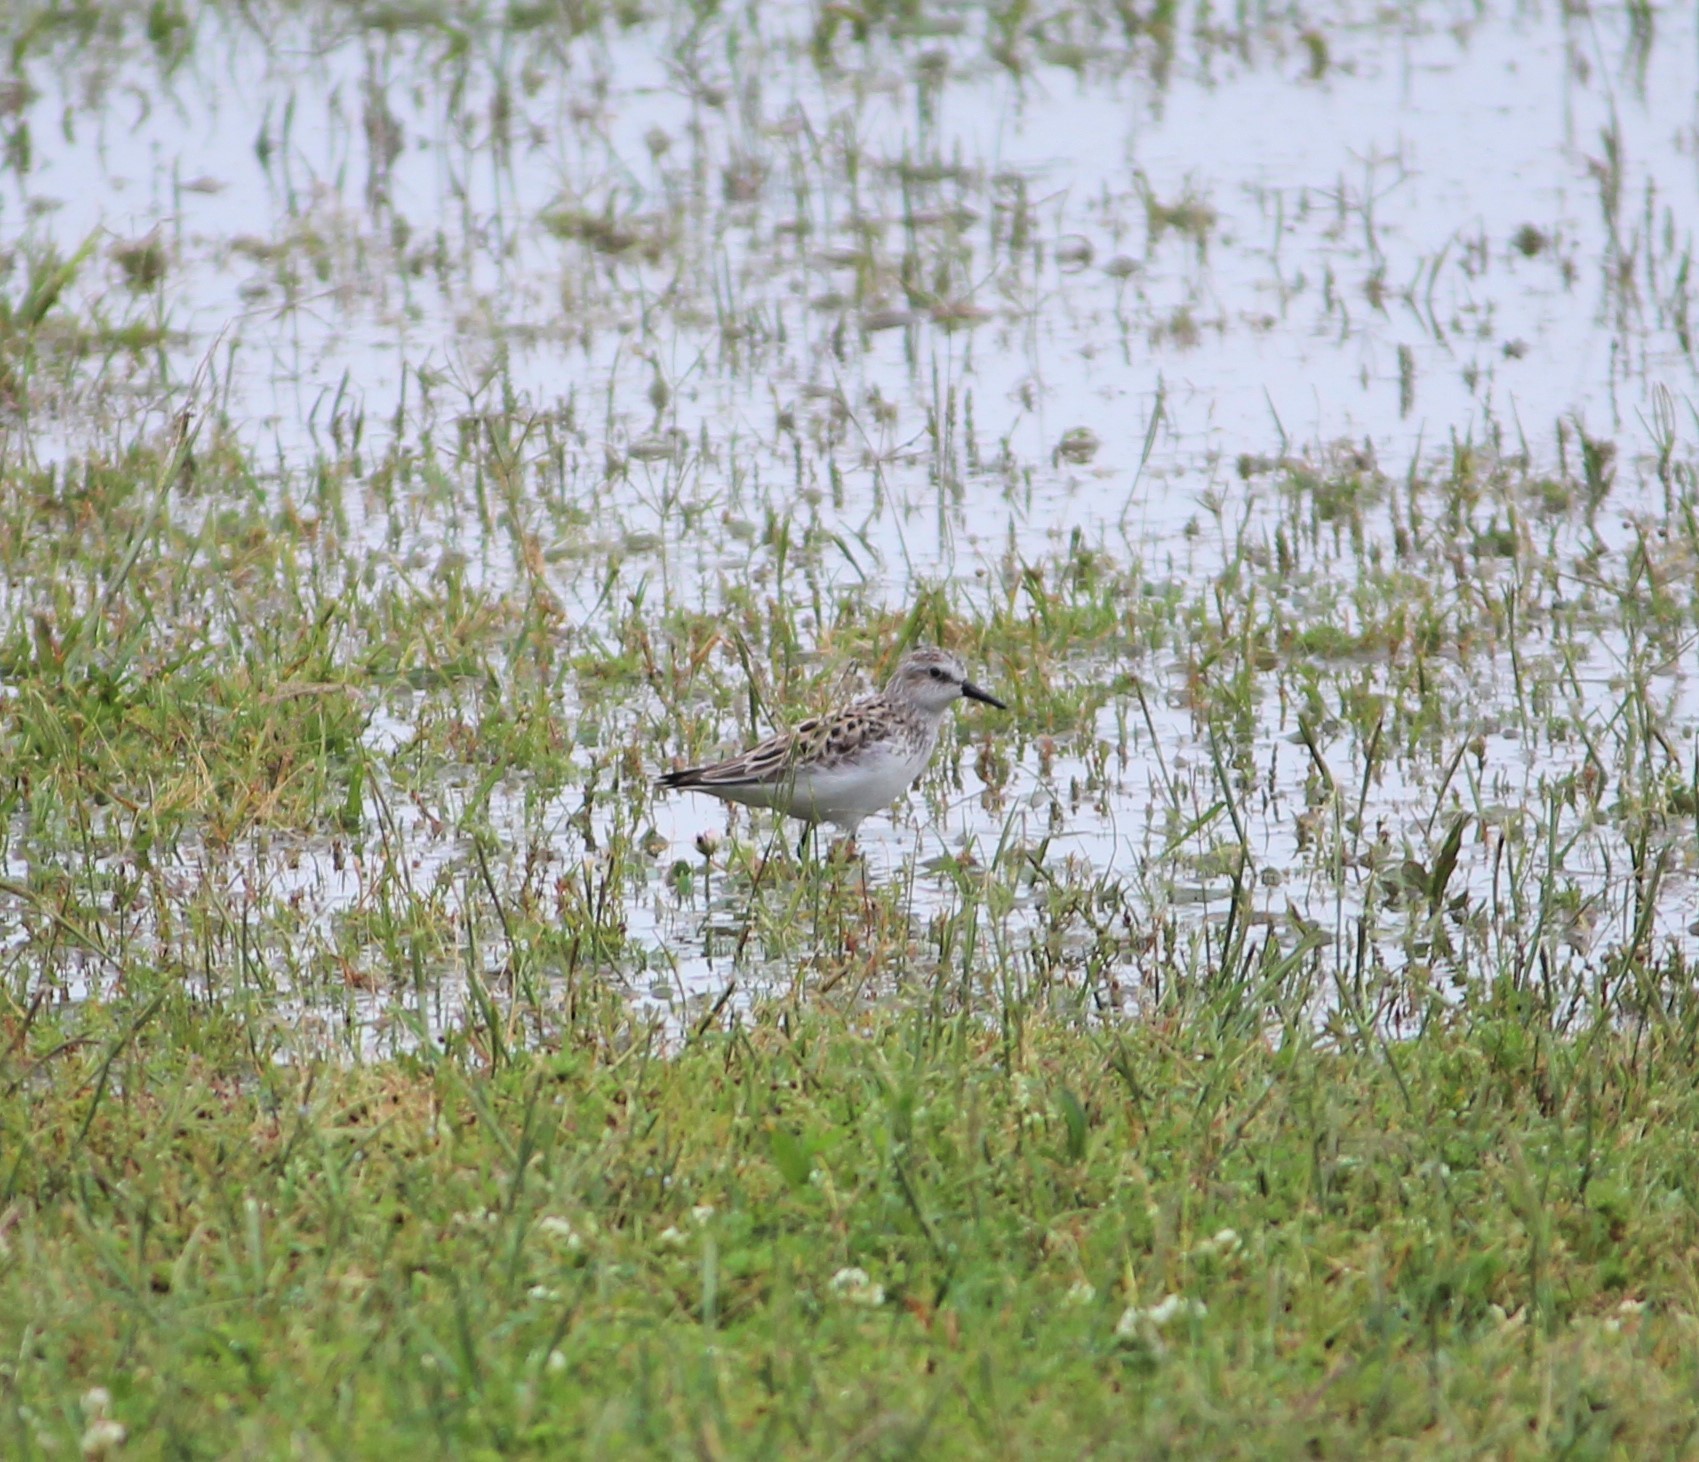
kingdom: Animalia
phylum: Chordata
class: Aves
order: Charadriiformes
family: Scolopacidae
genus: Calidris
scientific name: Calidris pusilla
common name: Semipalmated sandpiper
